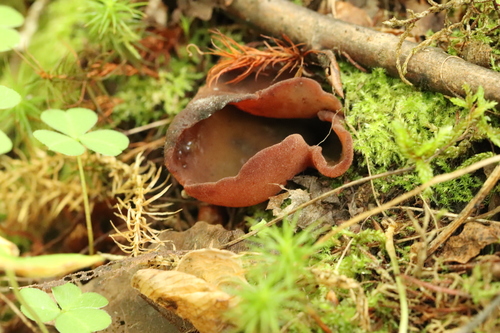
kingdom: Fungi
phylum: Ascomycota
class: Pezizomycetes
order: Pezizales
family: Pezizaceae
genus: Legaliana
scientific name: Legaliana
